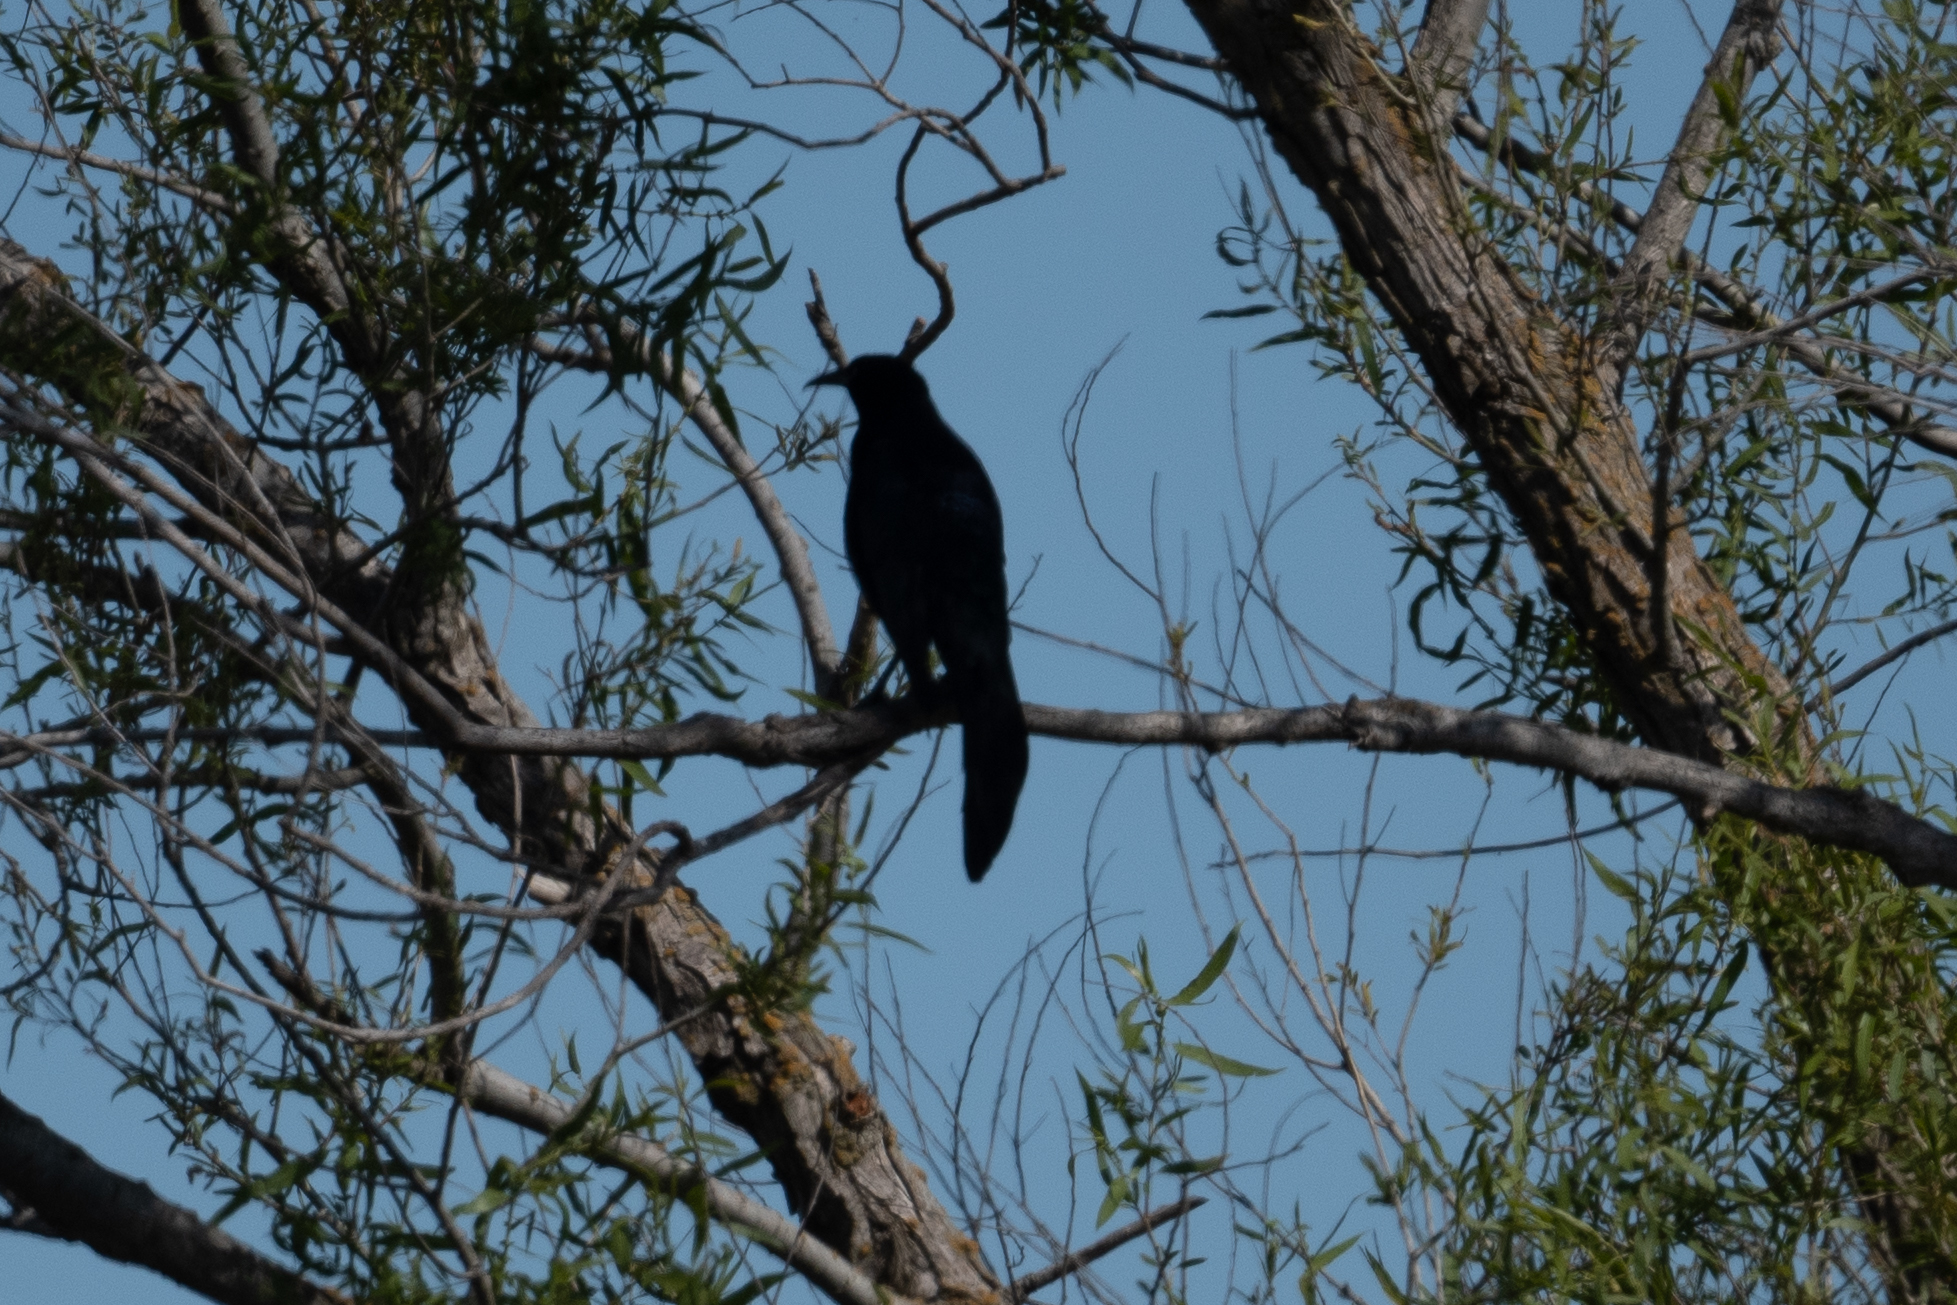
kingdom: Animalia
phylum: Chordata
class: Aves
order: Passeriformes
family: Icteridae
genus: Quiscalus
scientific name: Quiscalus mexicanus
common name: Great-tailed grackle
